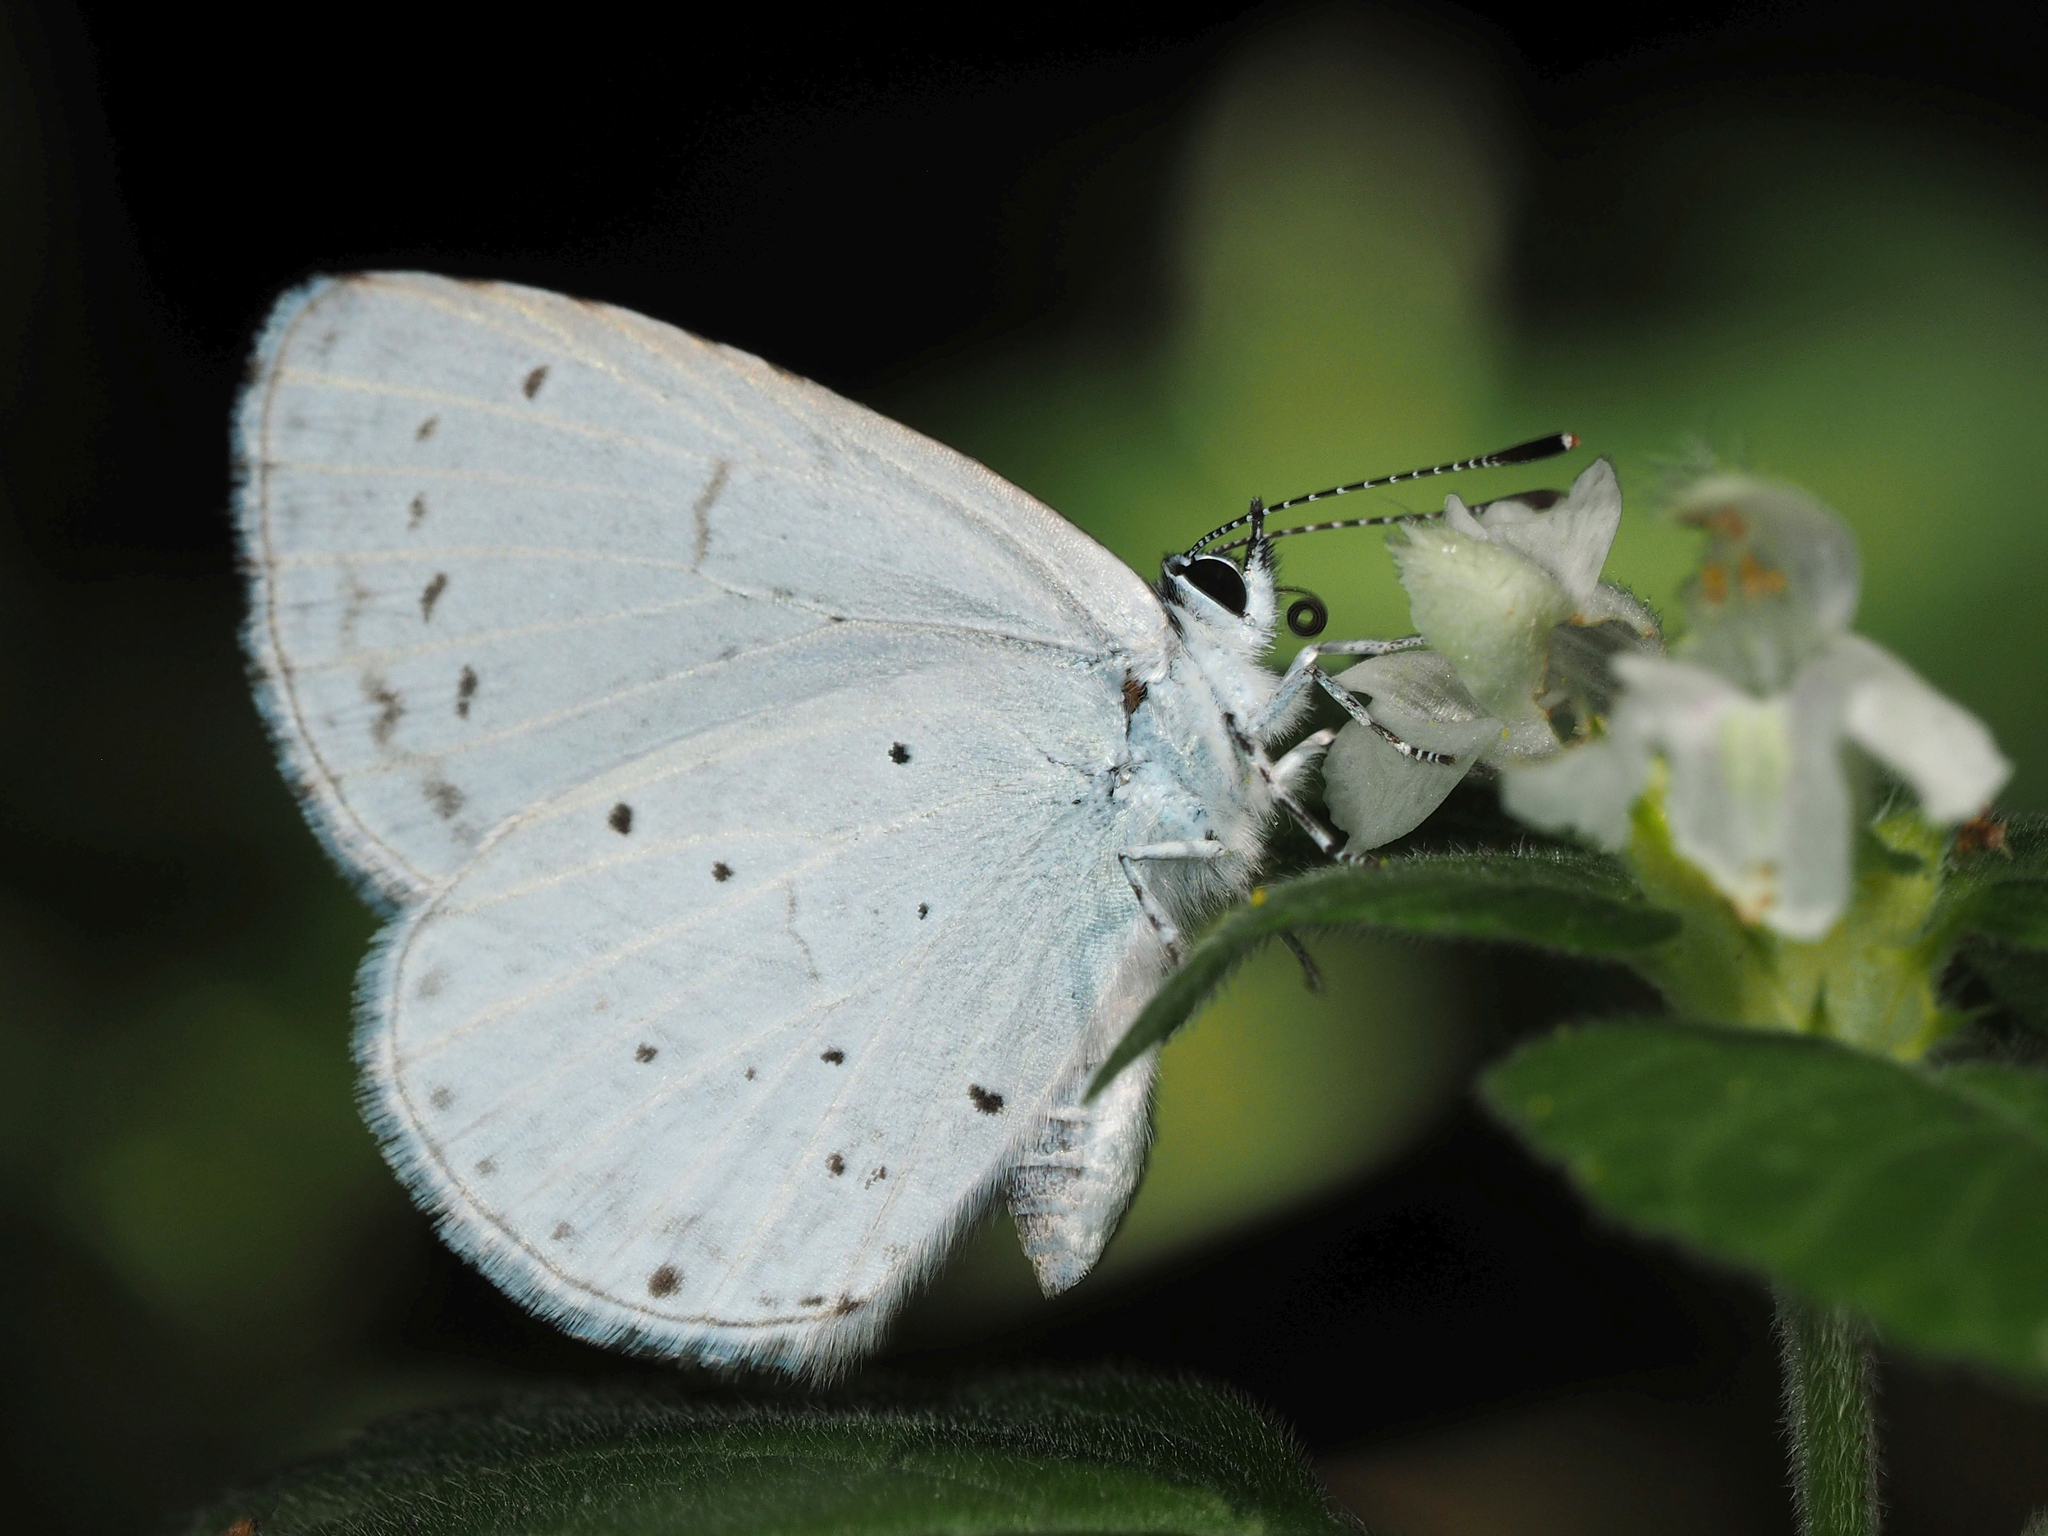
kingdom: Animalia
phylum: Arthropoda
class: Insecta
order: Lepidoptera
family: Lycaenidae
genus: Celastrina
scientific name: Celastrina argiolus
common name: Holly blue
